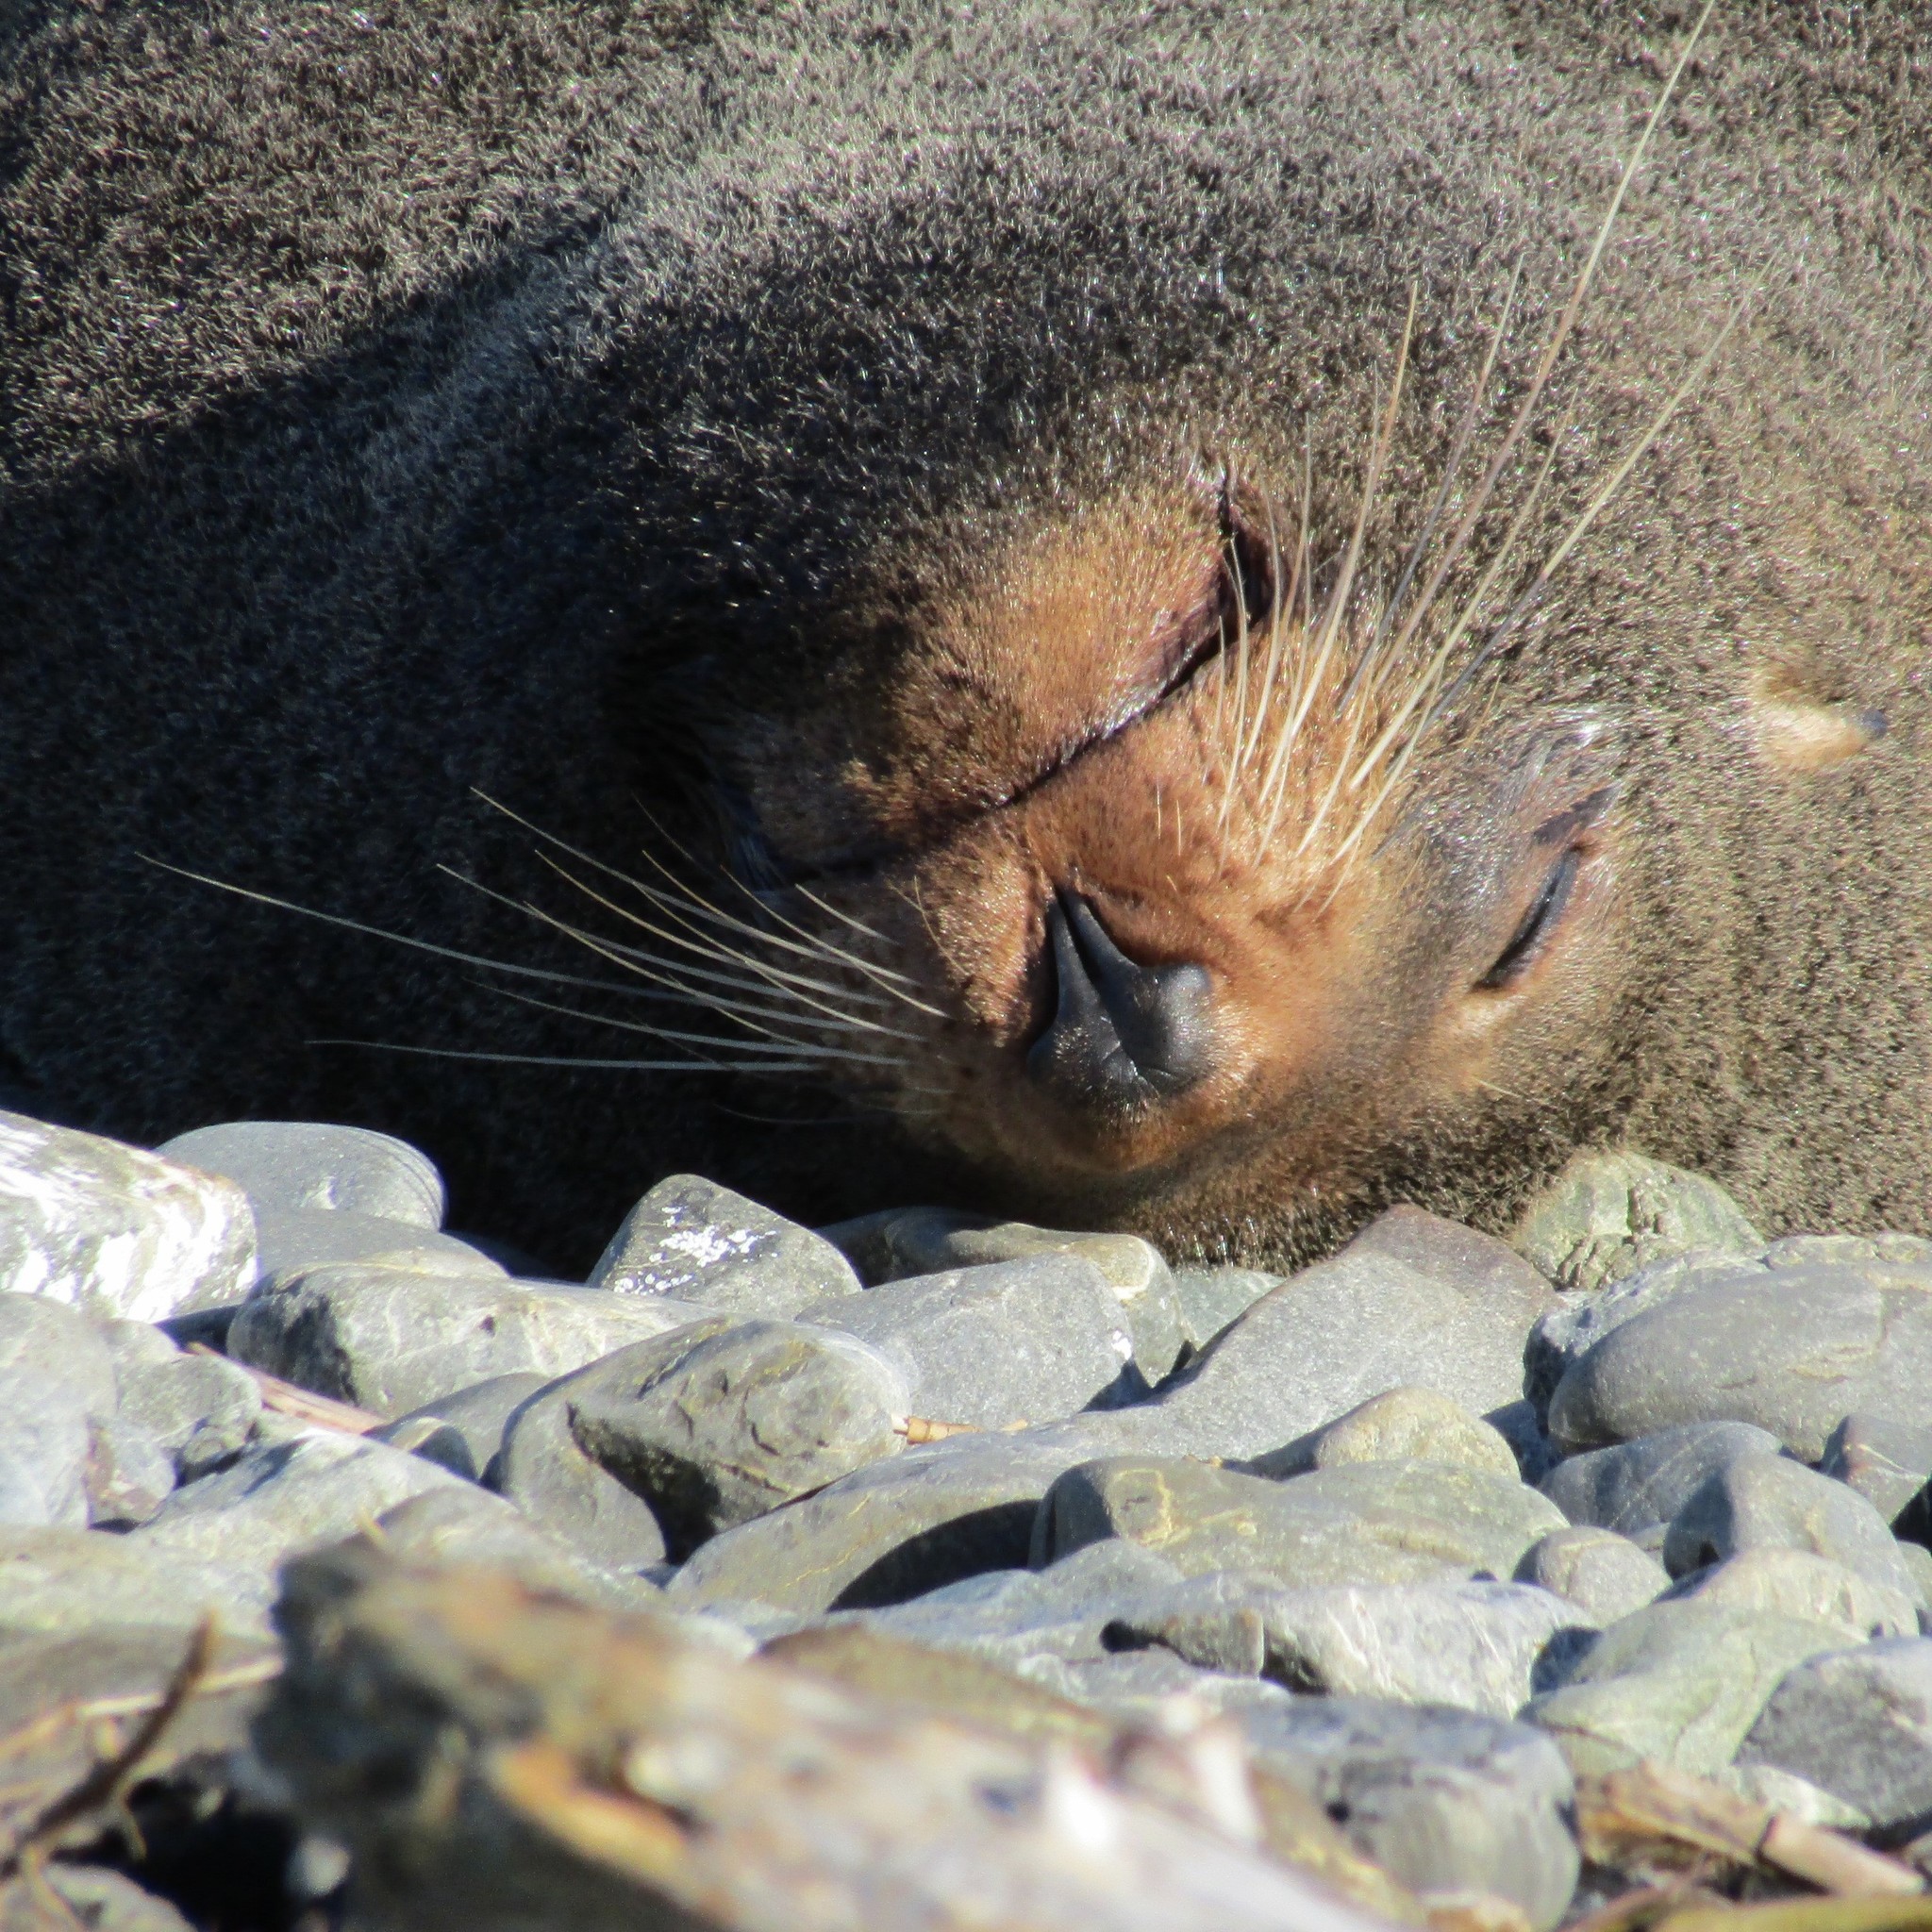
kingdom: Animalia
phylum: Chordata
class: Mammalia
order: Carnivora
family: Otariidae
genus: Arctocephalus
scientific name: Arctocephalus forsteri
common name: New zealand fur seal
